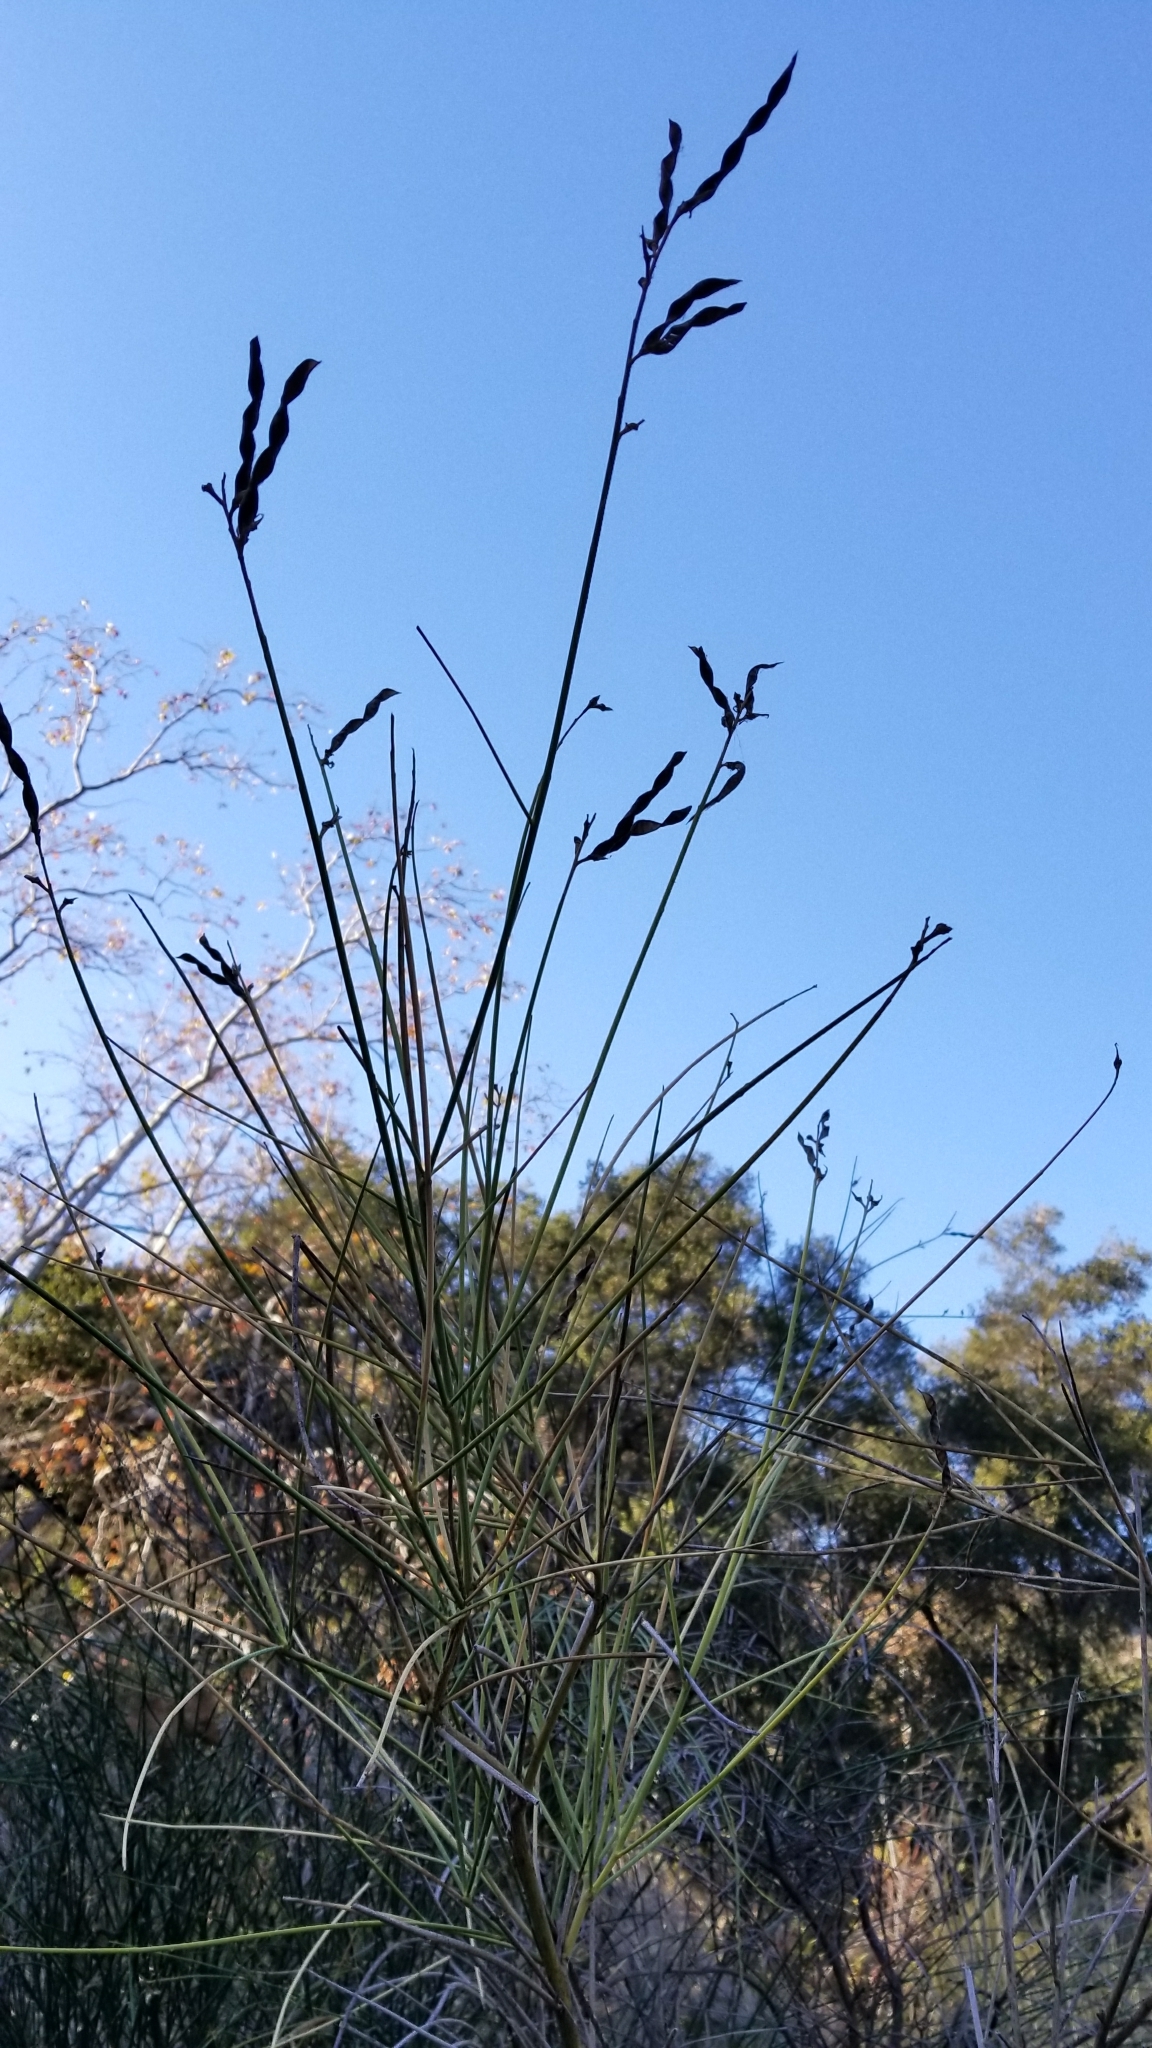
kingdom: Plantae
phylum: Tracheophyta
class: Magnoliopsida
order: Fabales
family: Fabaceae
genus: Spartium
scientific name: Spartium junceum
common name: Spanish broom
